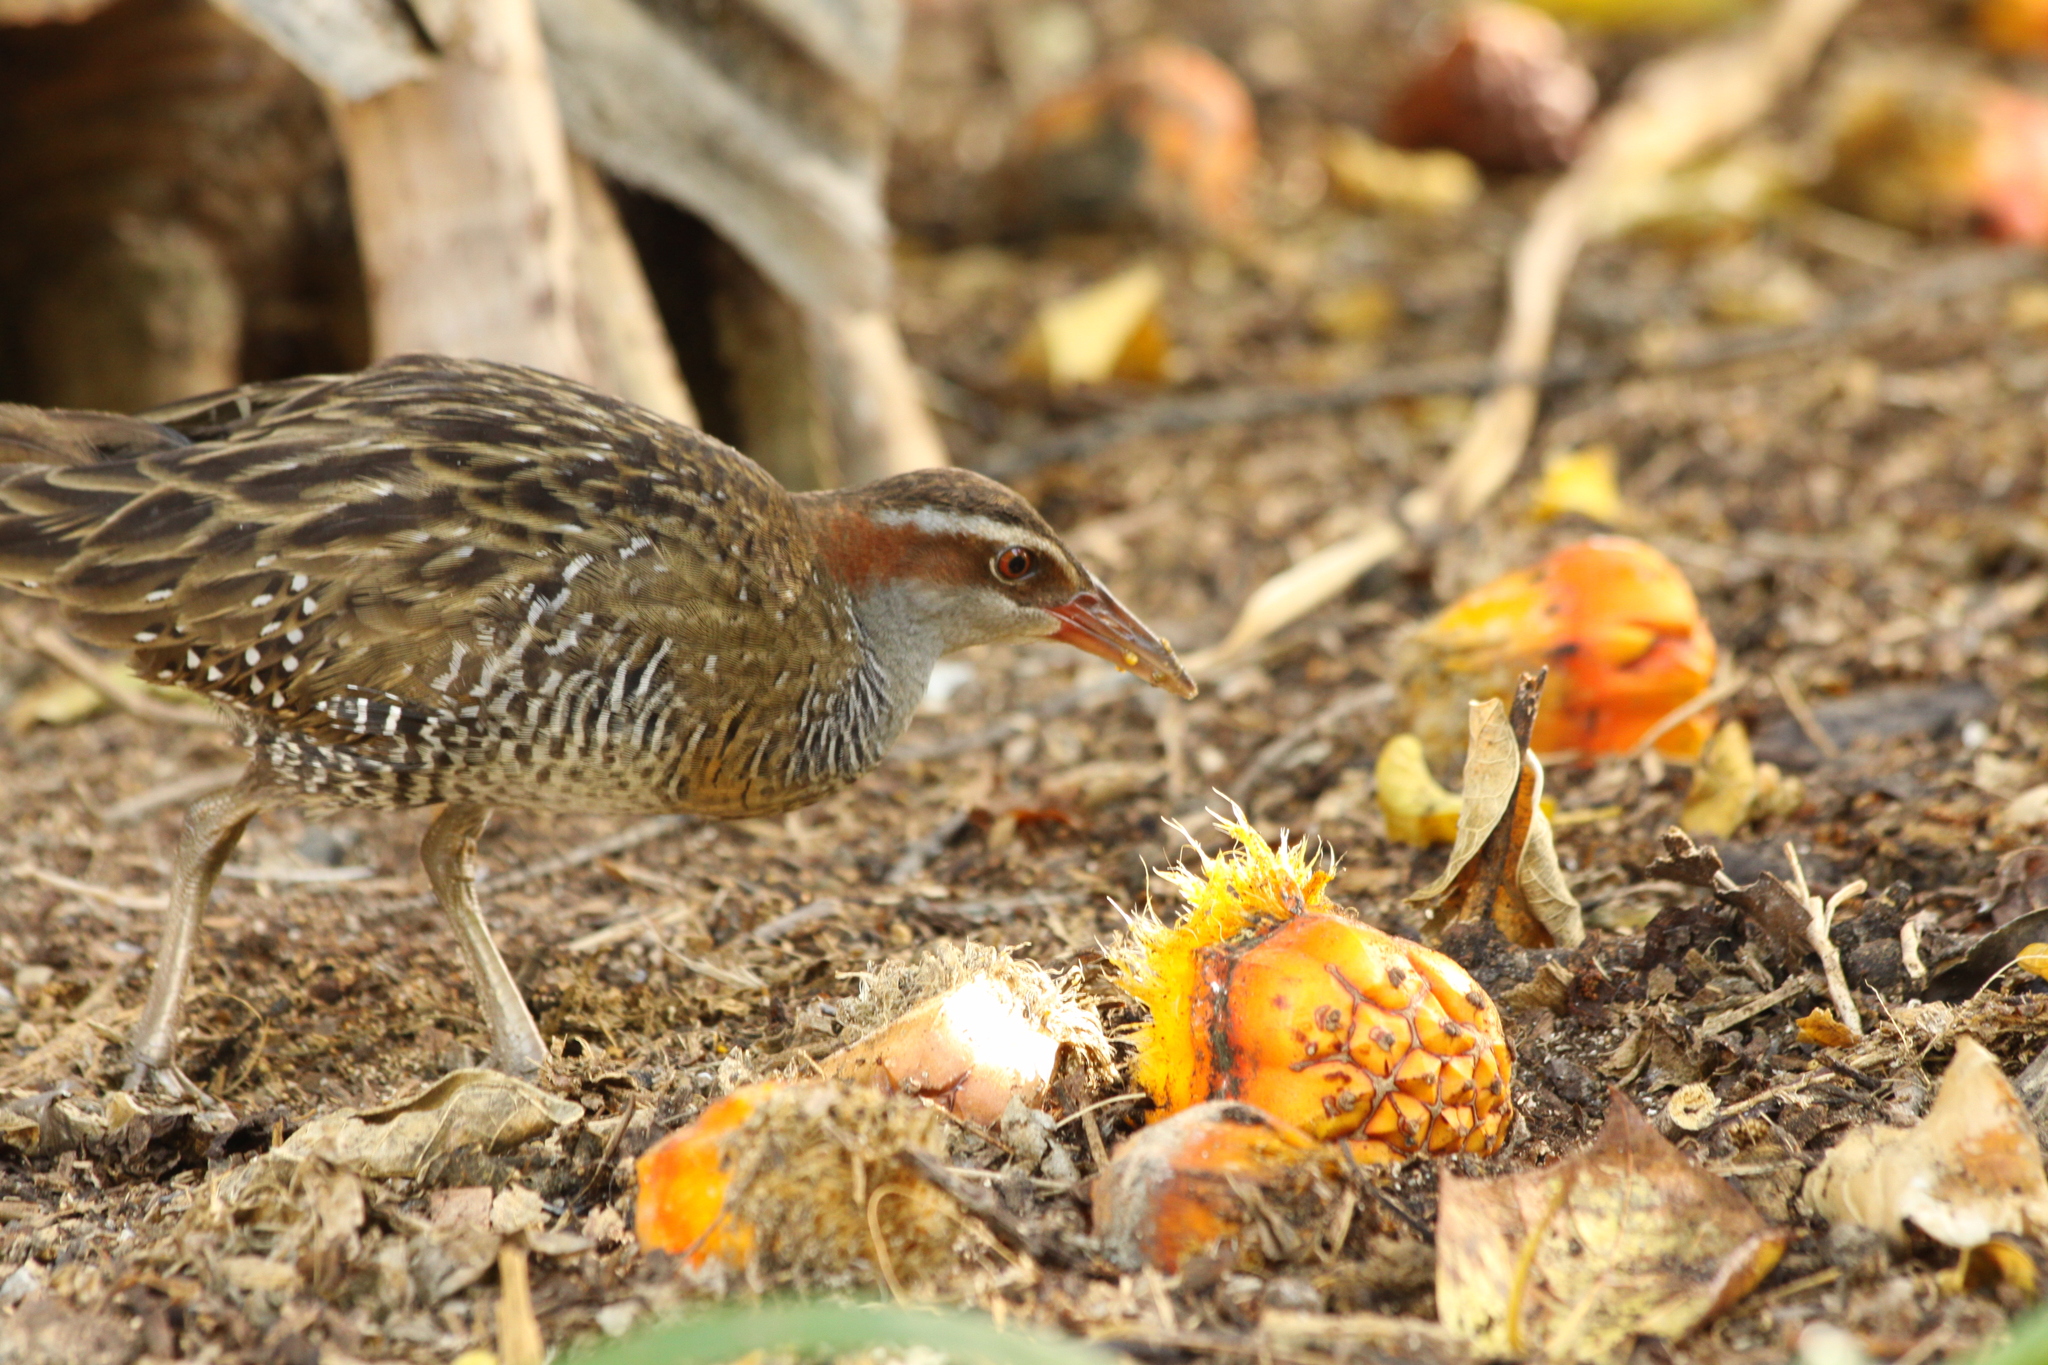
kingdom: Animalia
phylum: Chordata
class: Aves
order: Gruiformes
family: Rallidae
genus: Gallirallus
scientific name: Gallirallus philippensis
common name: Buff-banded rail
